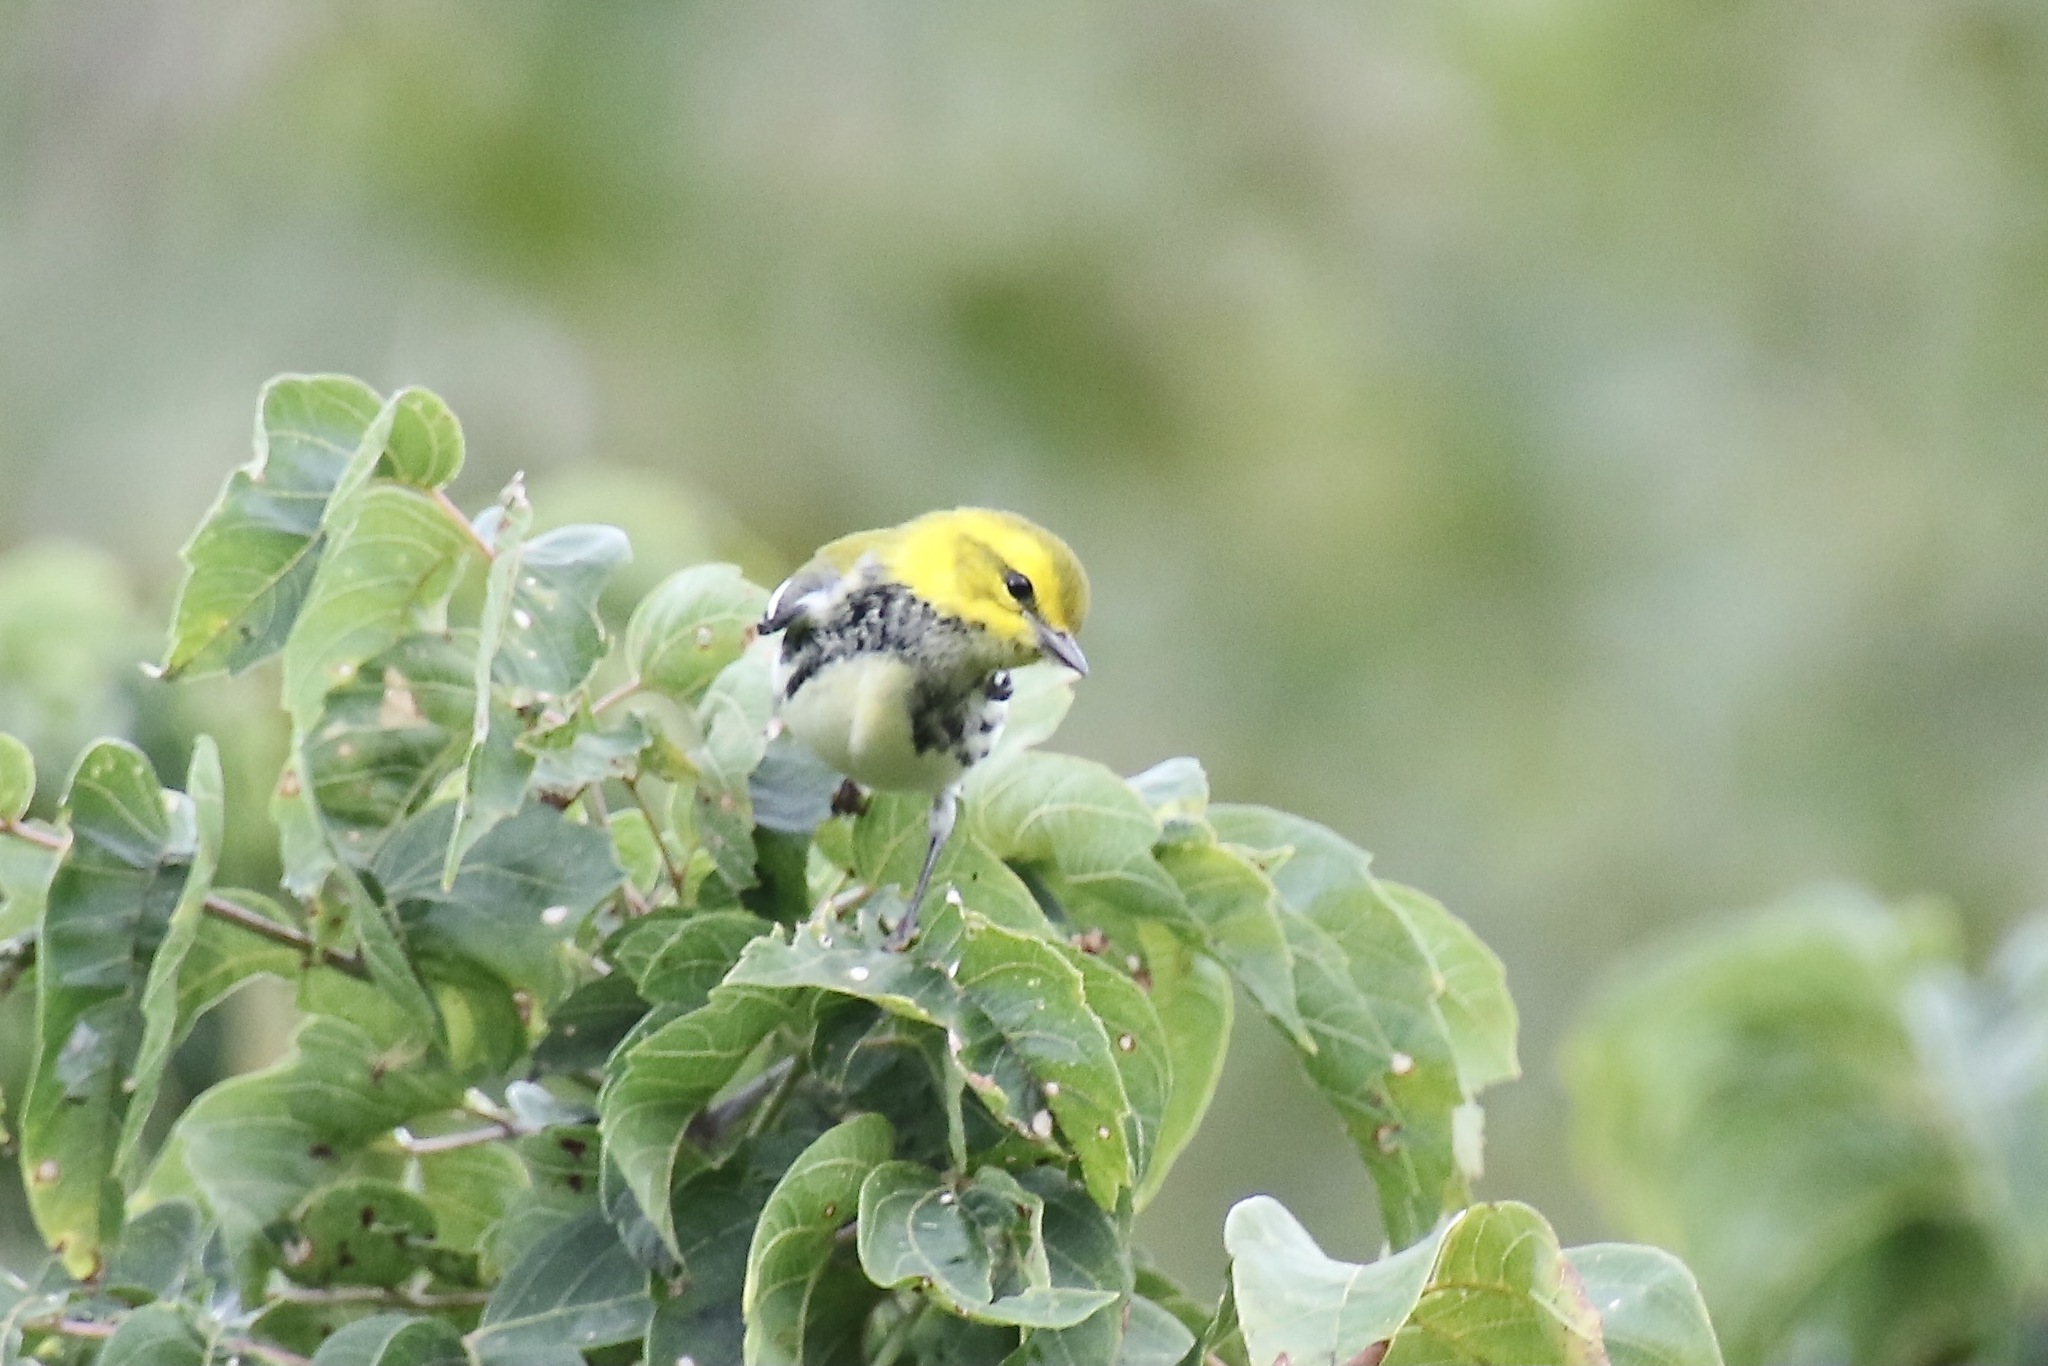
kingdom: Animalia
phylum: Chordata
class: Aves
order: Passeriformes
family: Parulidae
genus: Setophaga
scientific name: Setophaga virens
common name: Black-throated green warbler
